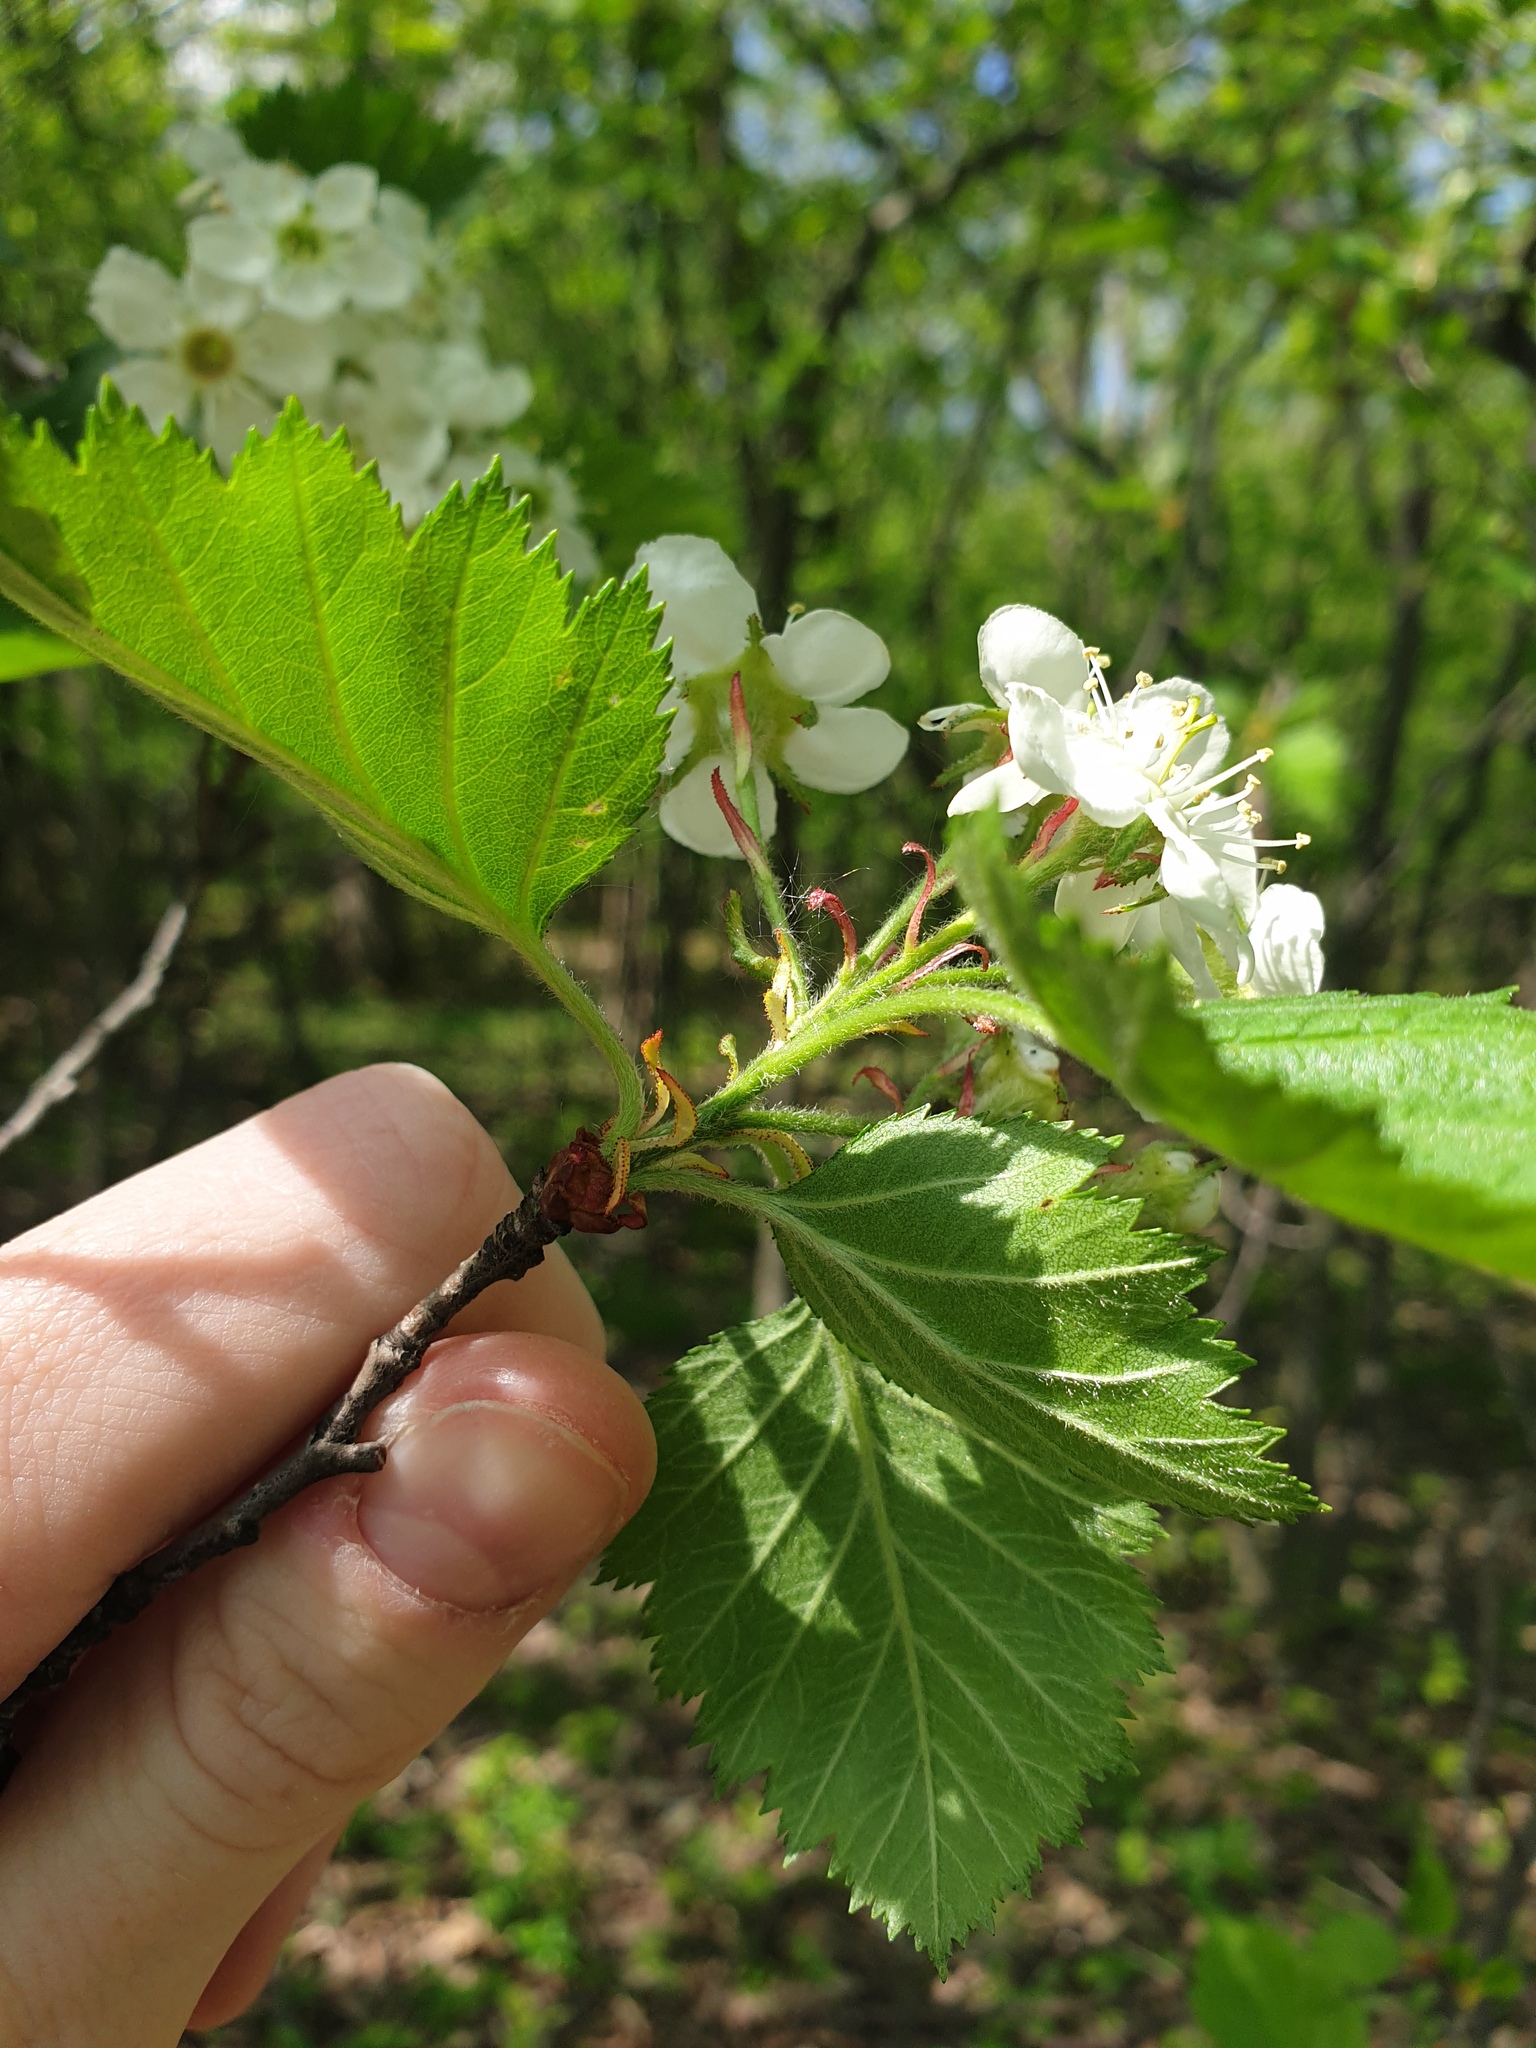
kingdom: Plantae
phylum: Tracheophyta
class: Magnoliopsida
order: Rosales
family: Rosaceae
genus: Crataegus
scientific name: Crataegus submollis
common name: Hairy cockspurthorn
